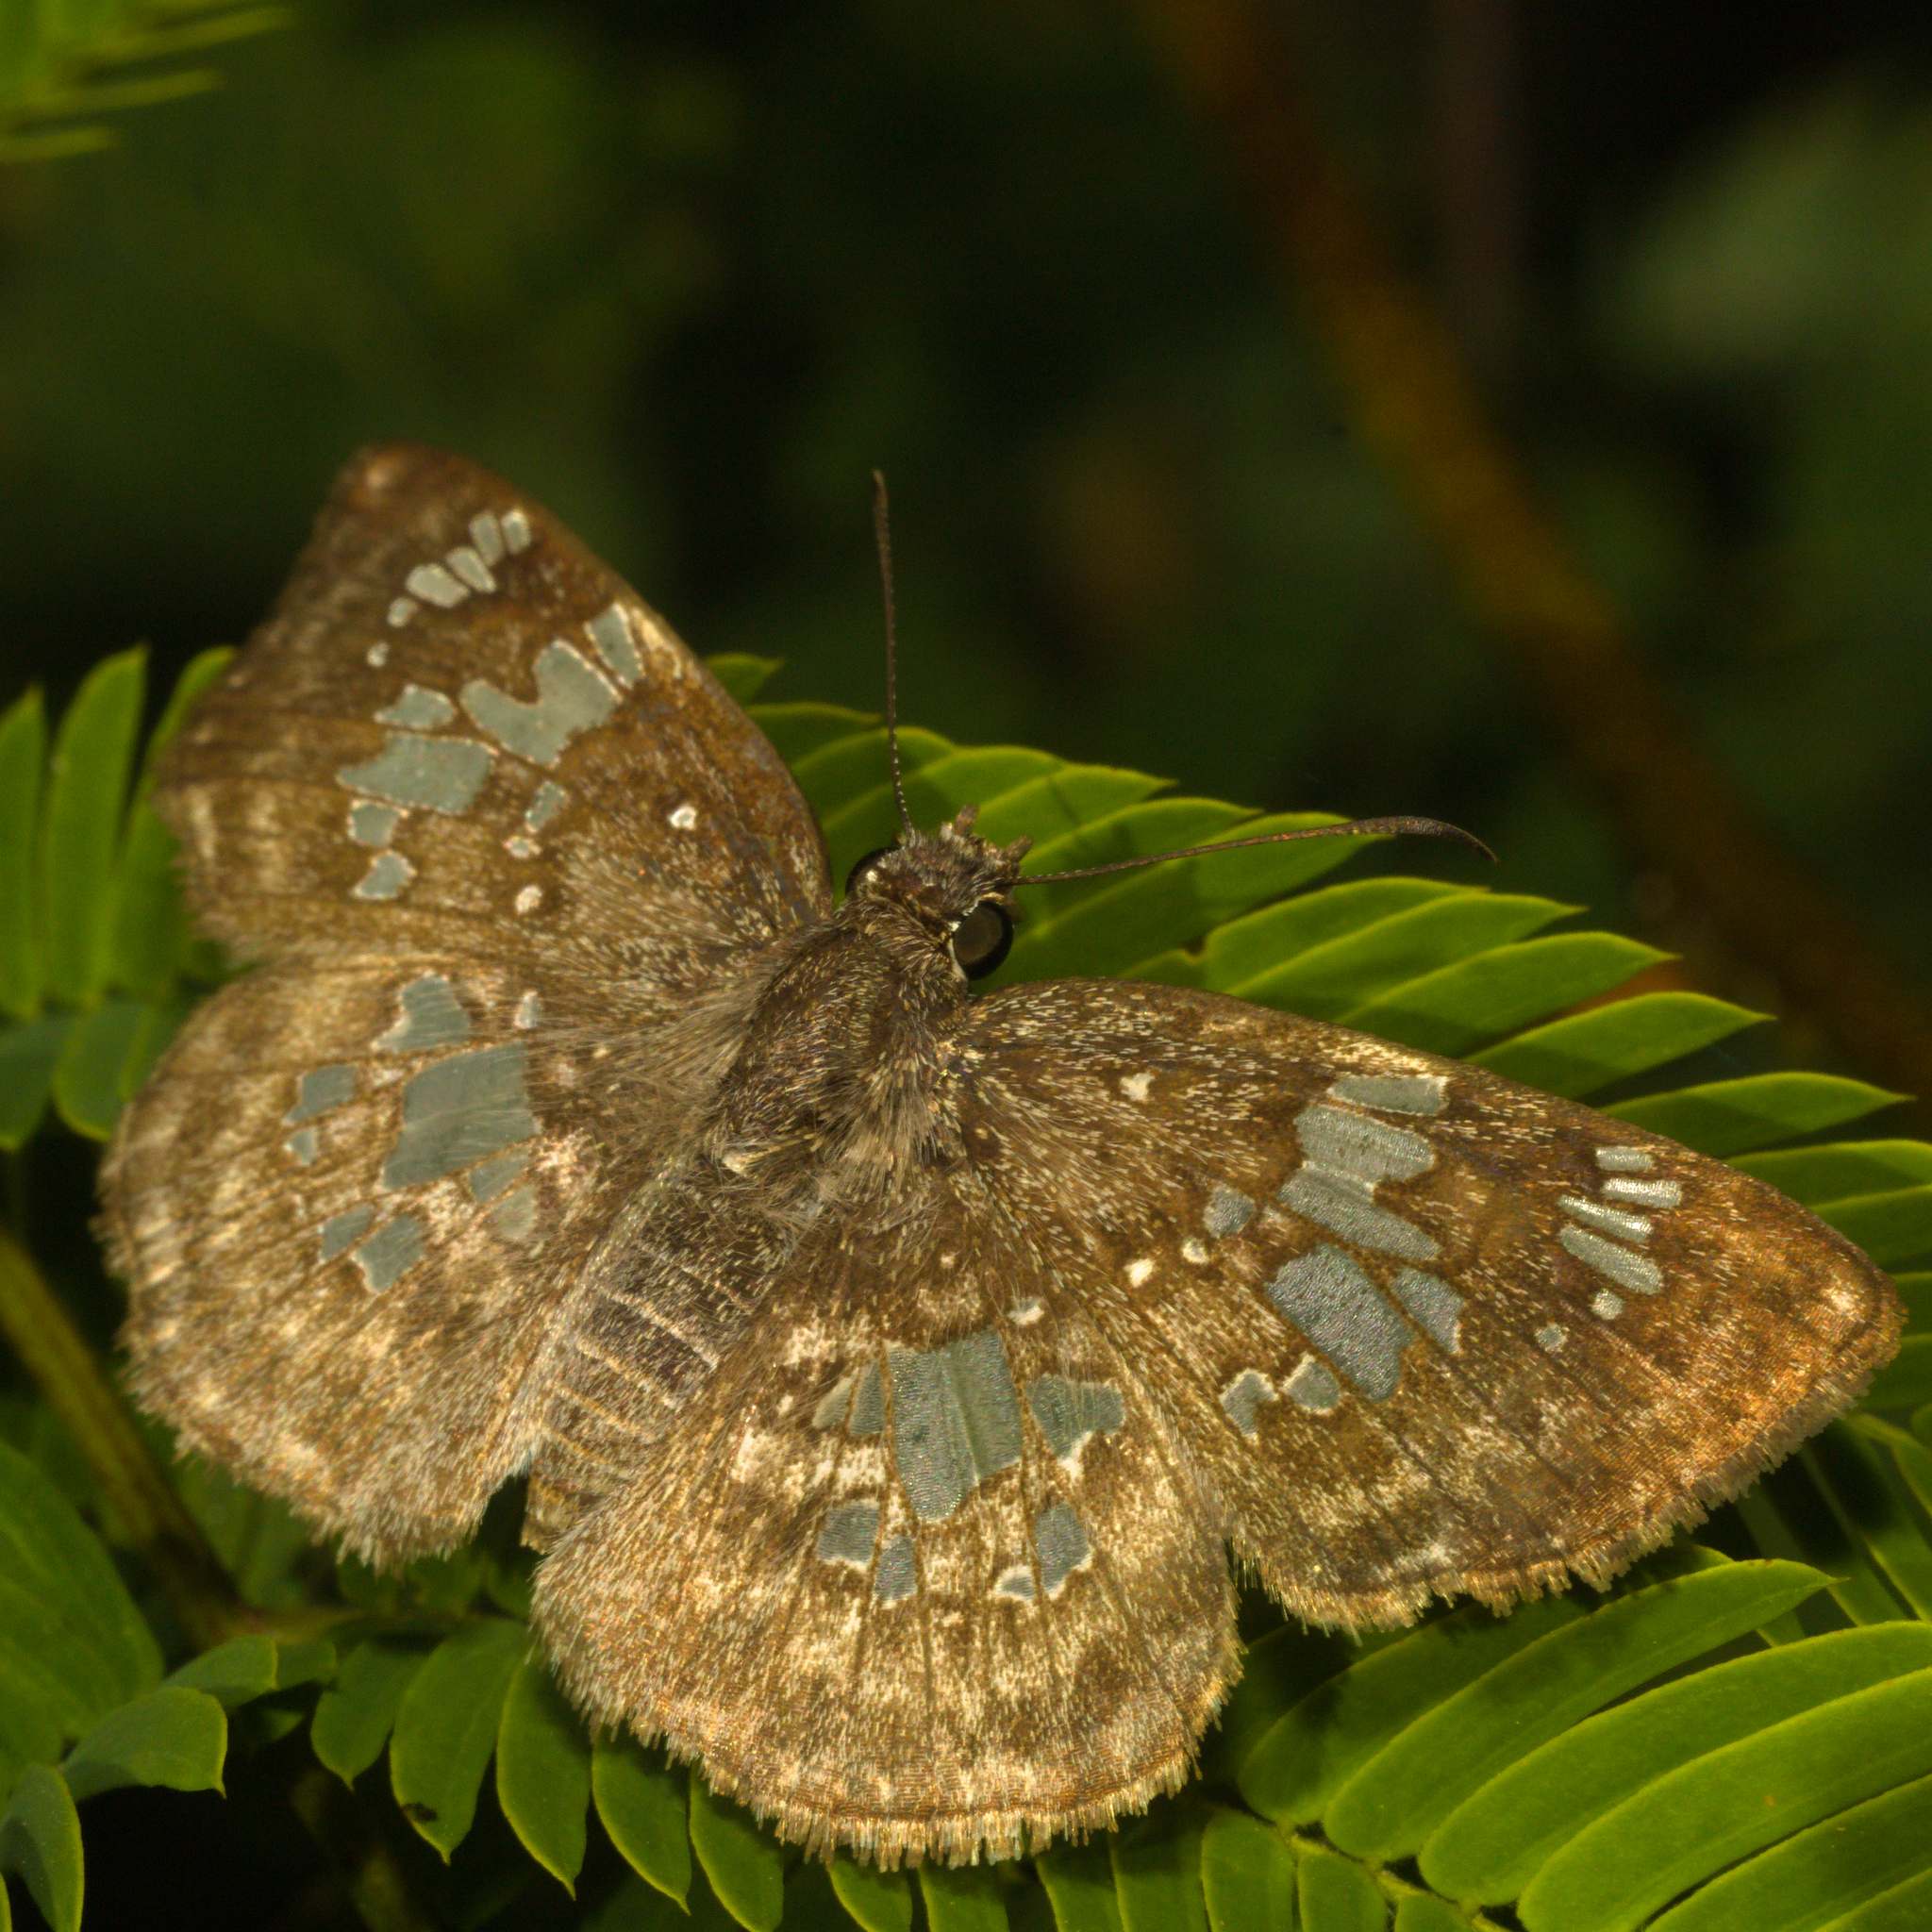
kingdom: Animalia
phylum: Arthropoda
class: Insecta
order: Lepidoptera
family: Hesperiidae
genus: Xenophanes
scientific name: Xenophanes tryxus
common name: Glassy-winged skipper
